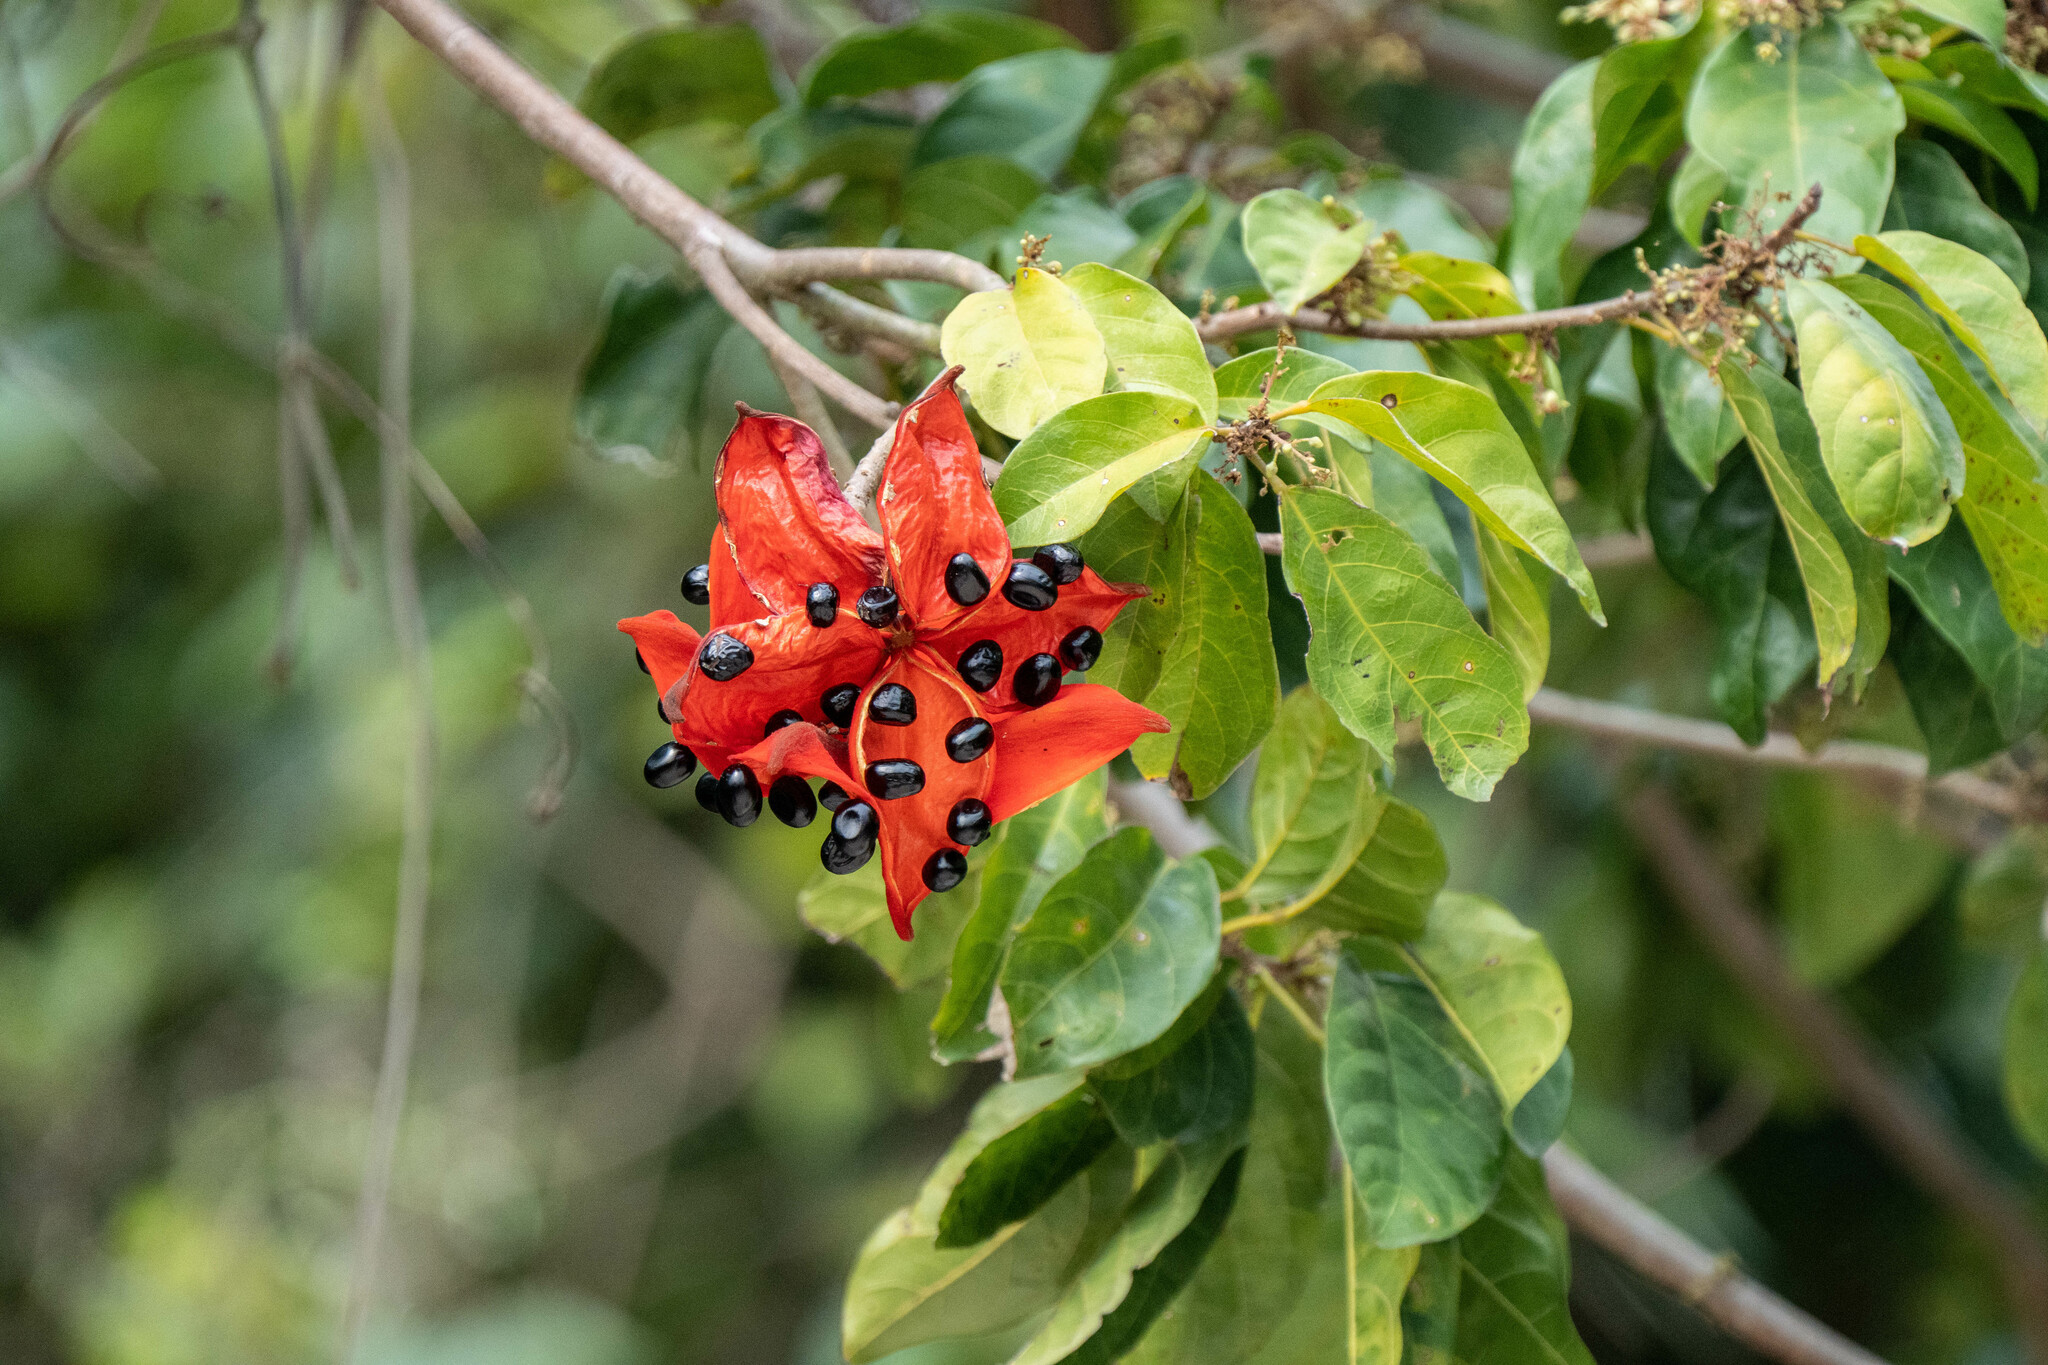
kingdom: Plantae
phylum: Tracheophyta
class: Magnoliopsida
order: Malvales
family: Malvaceae
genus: Sterculia
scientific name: Sterculia lanceolata
